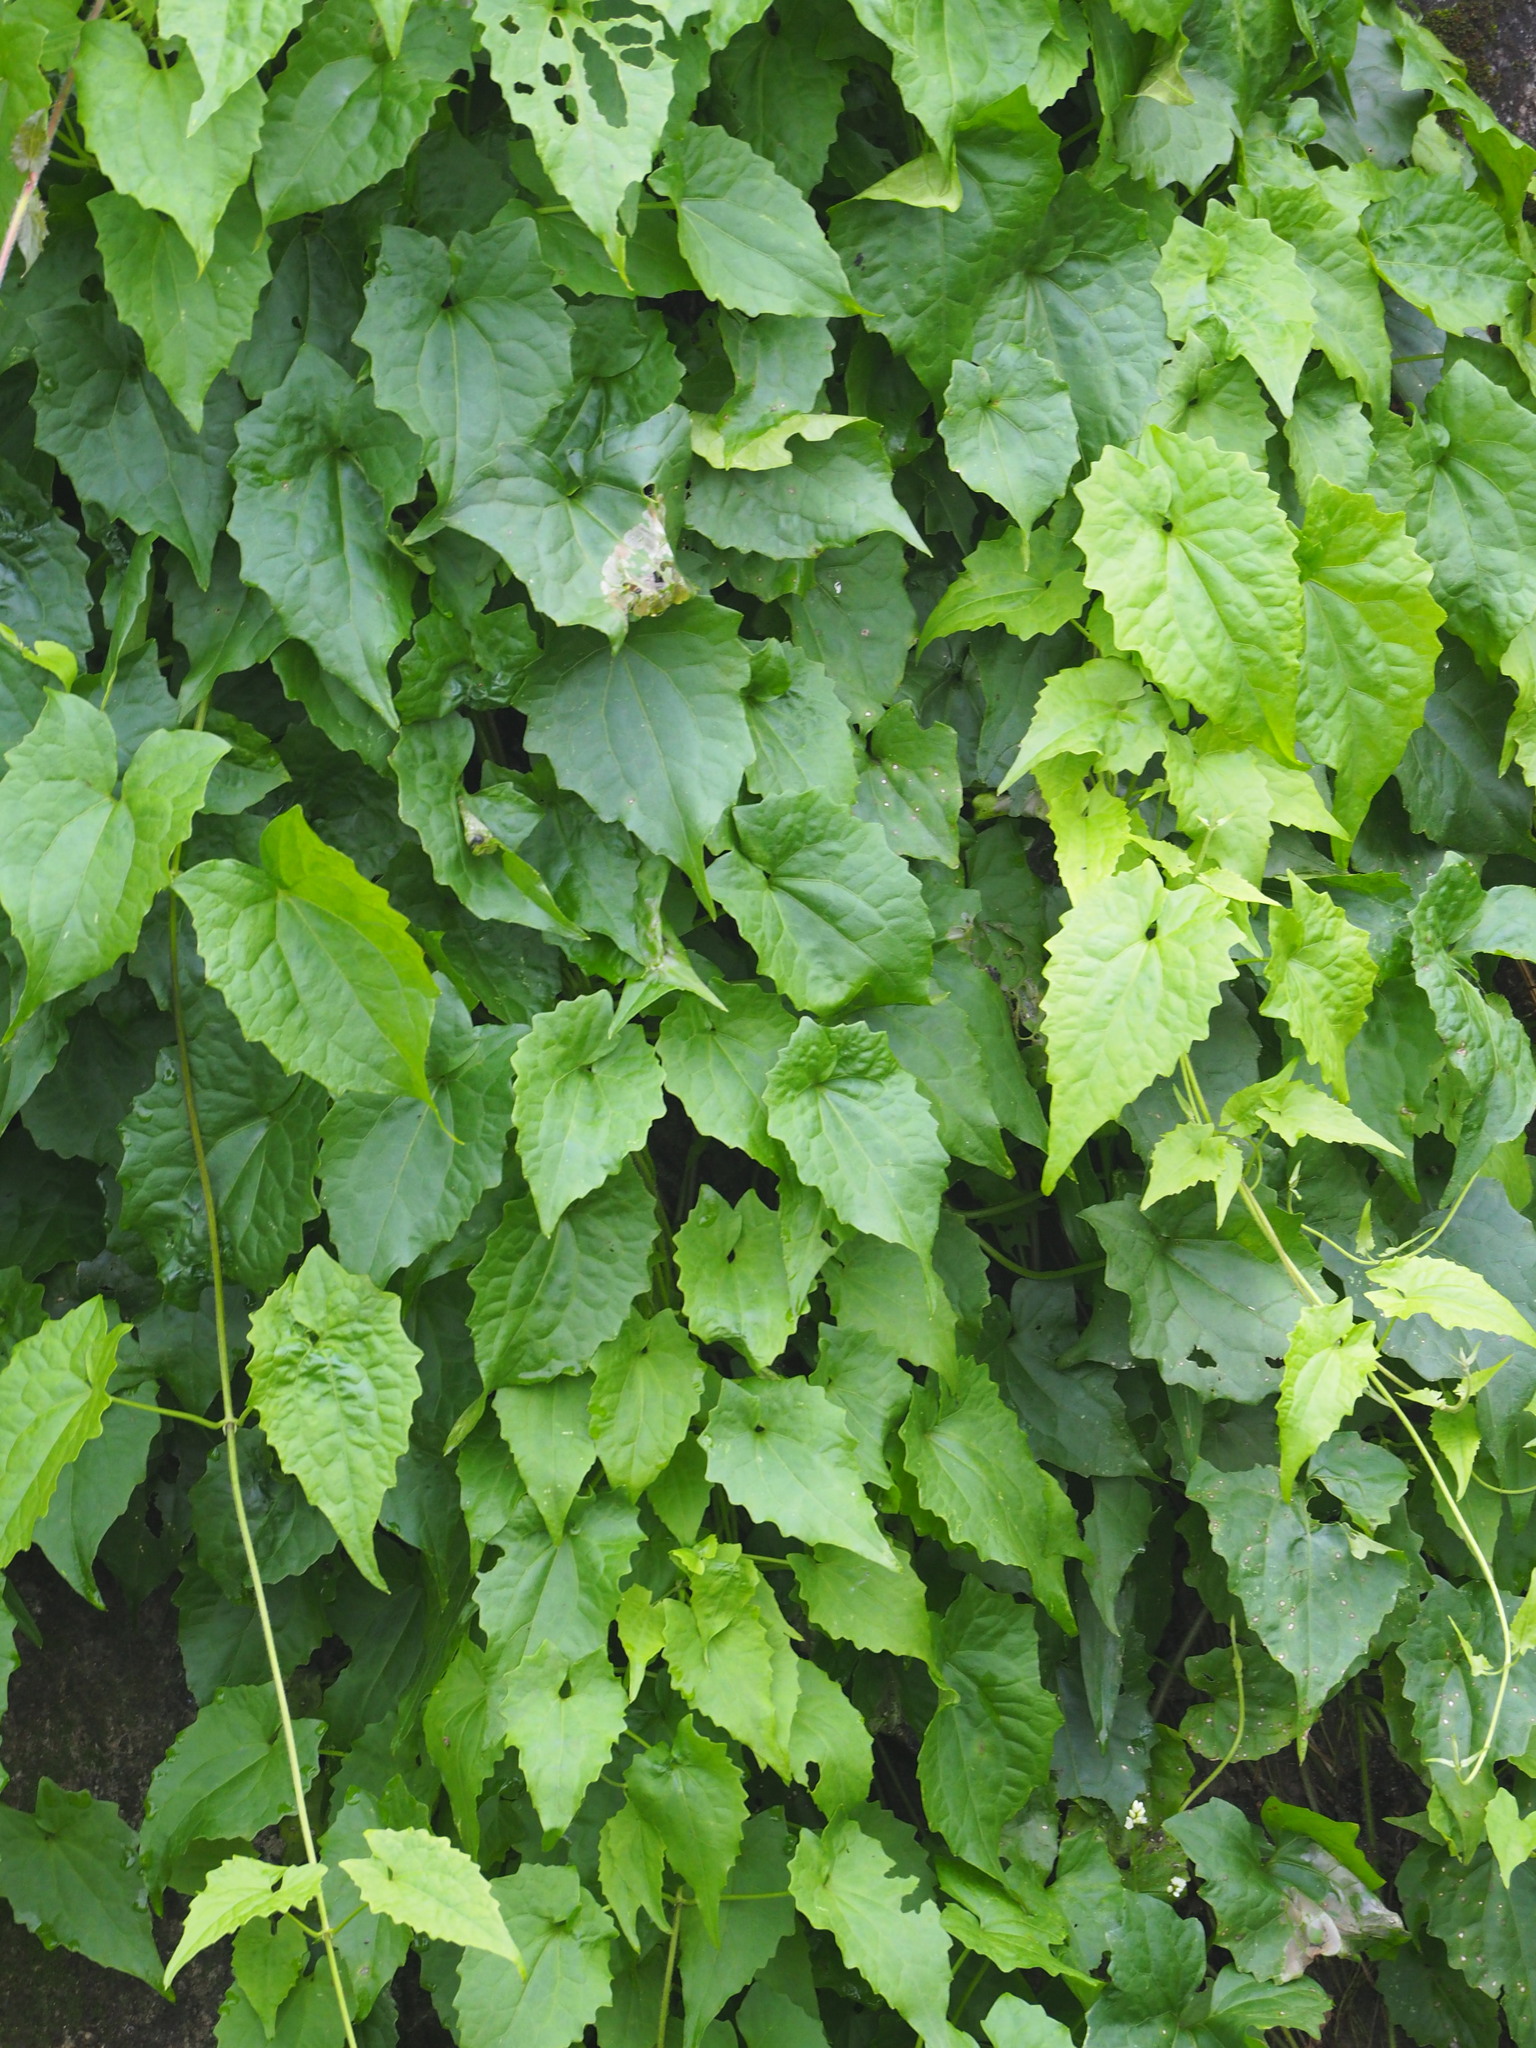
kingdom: Plantae
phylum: Tracheophyta
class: Magnoliopsida
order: Asterales
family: Asteraceae
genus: Mikania
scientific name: Mikania micrantha
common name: Mile-a-minute
